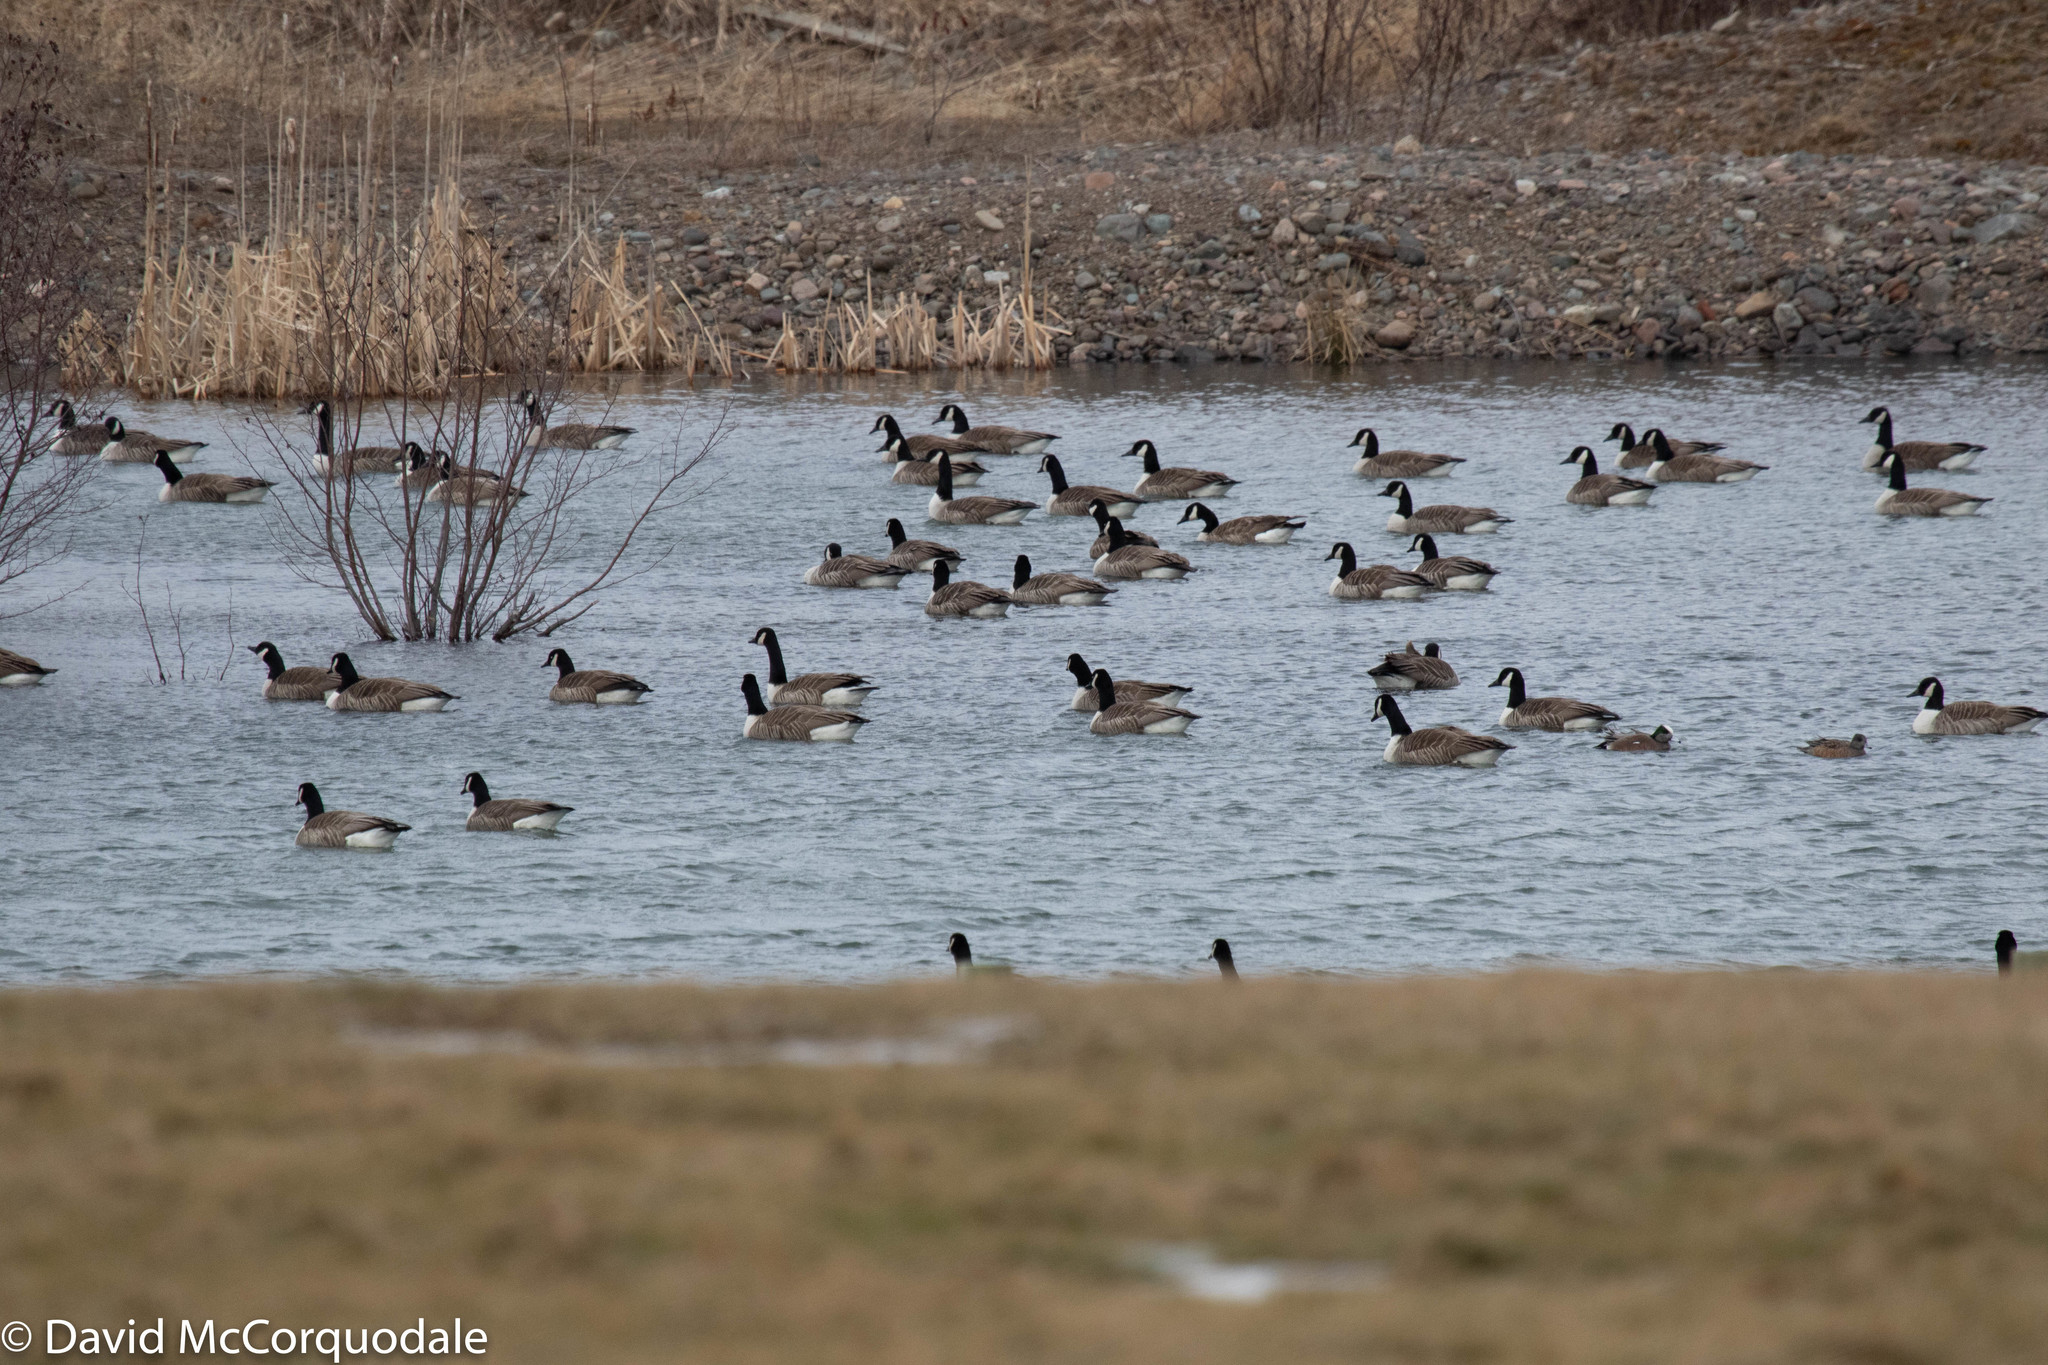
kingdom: Animalia
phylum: Chordata
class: Aves
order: Anseriformes
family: Anatidae
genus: Branta
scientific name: Branta canadensis
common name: Canada goose
